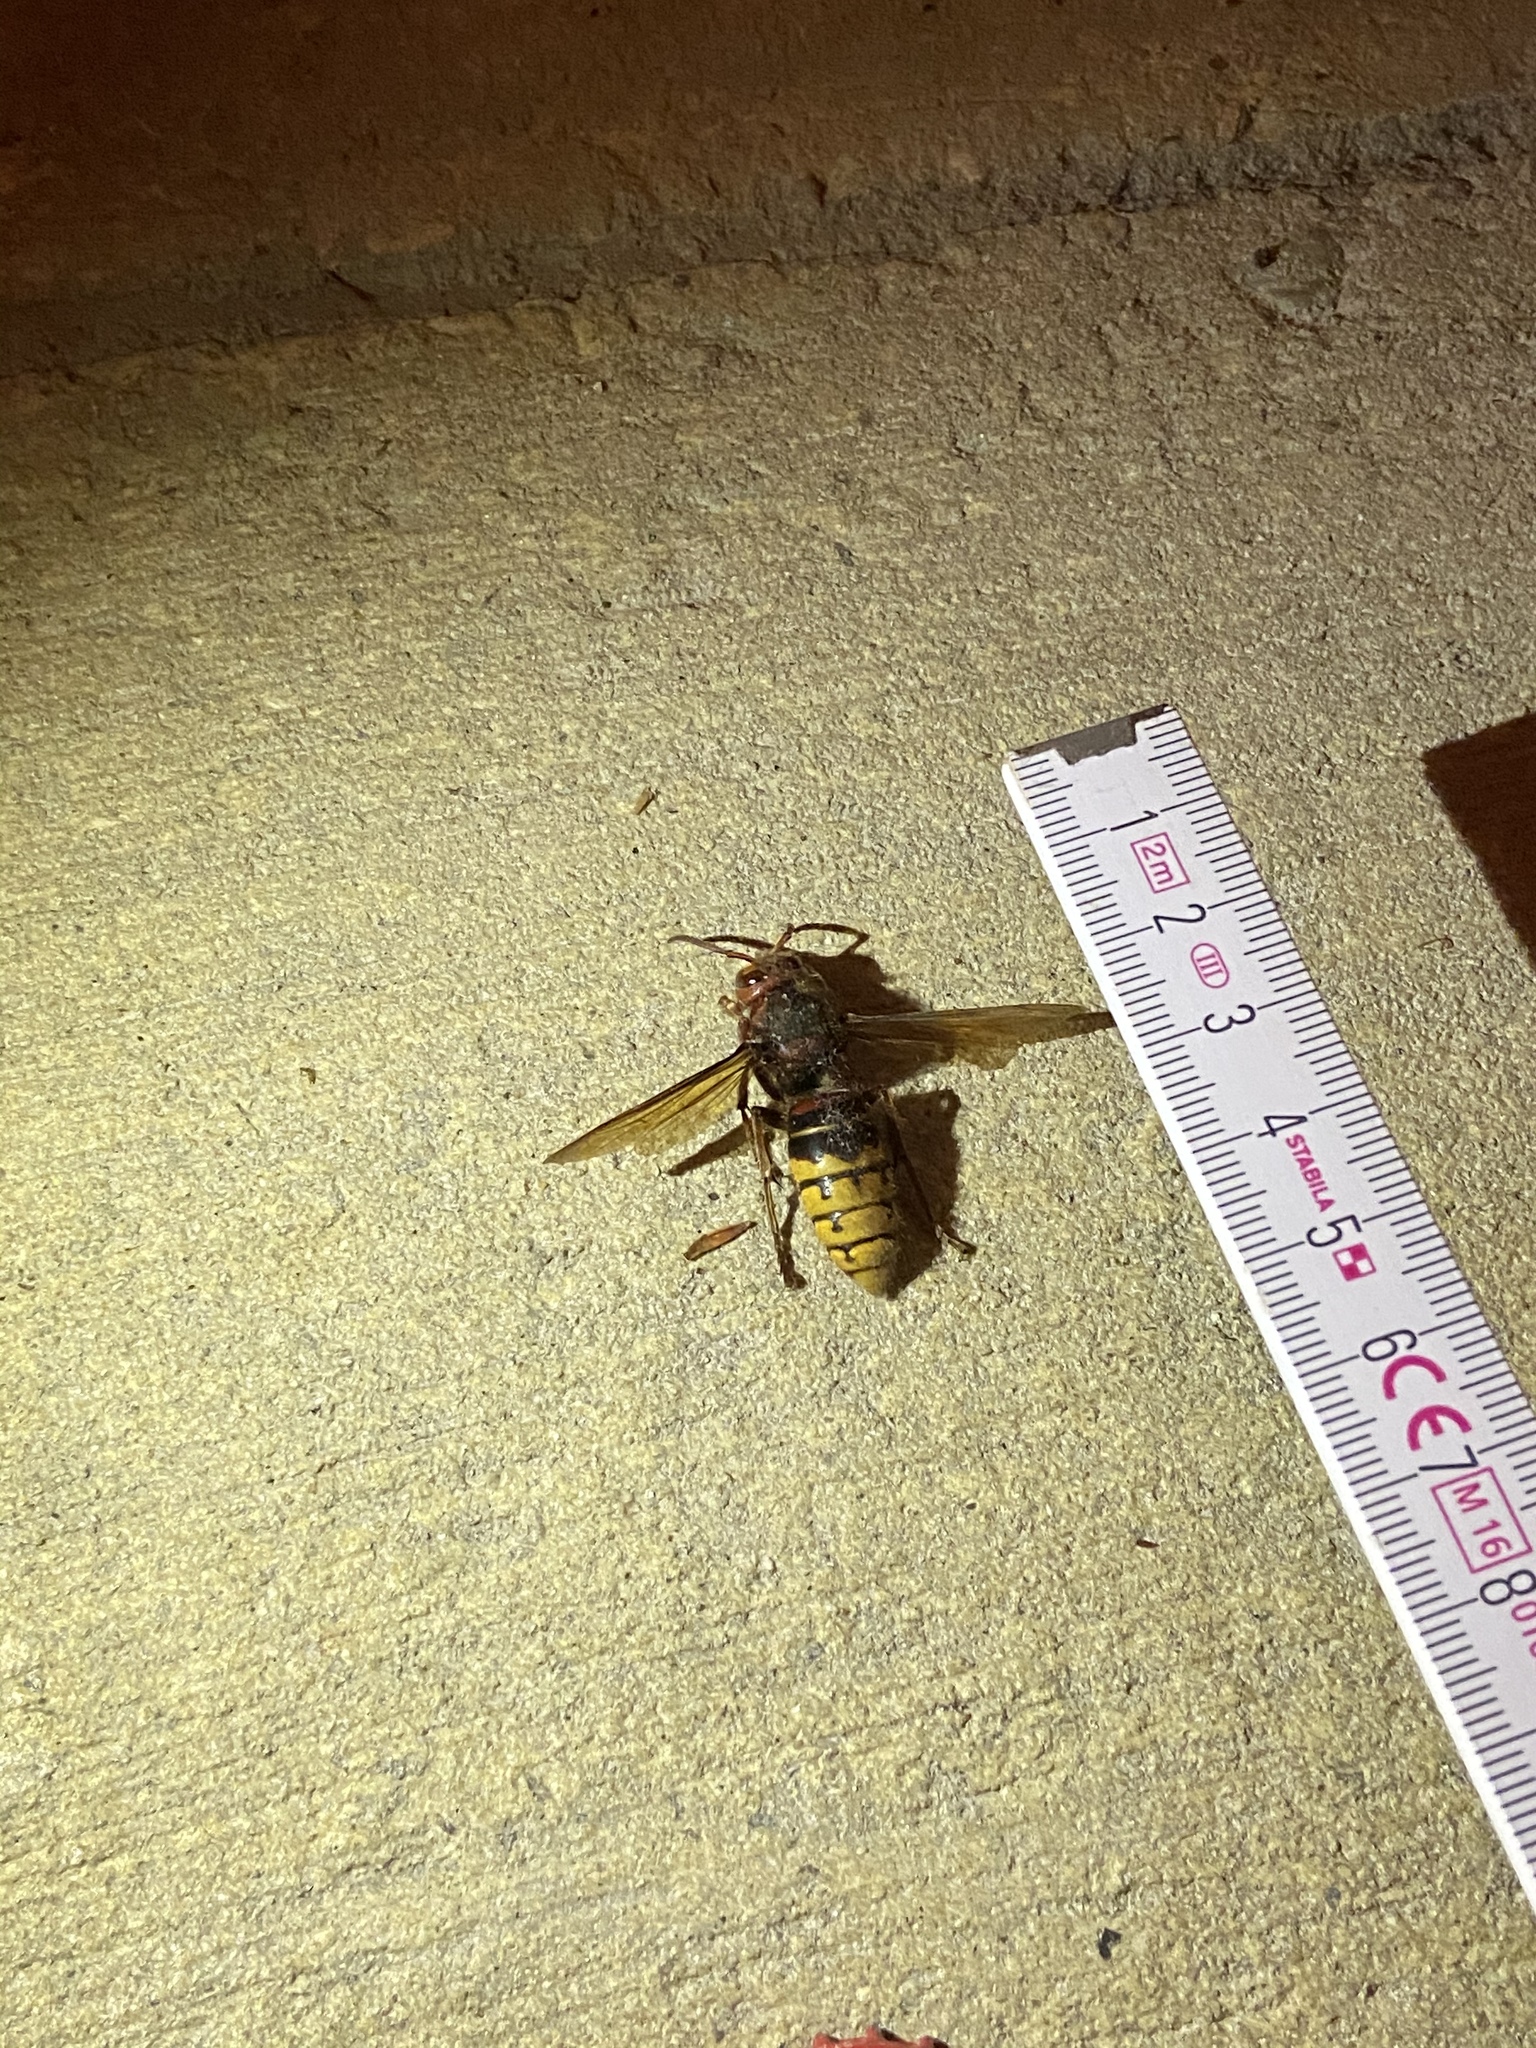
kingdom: Animalia
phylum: Arthropoda
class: Insecta
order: Hymenoptera
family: Vespidae
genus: Vespa
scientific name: Vespa crabro
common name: Hornet
